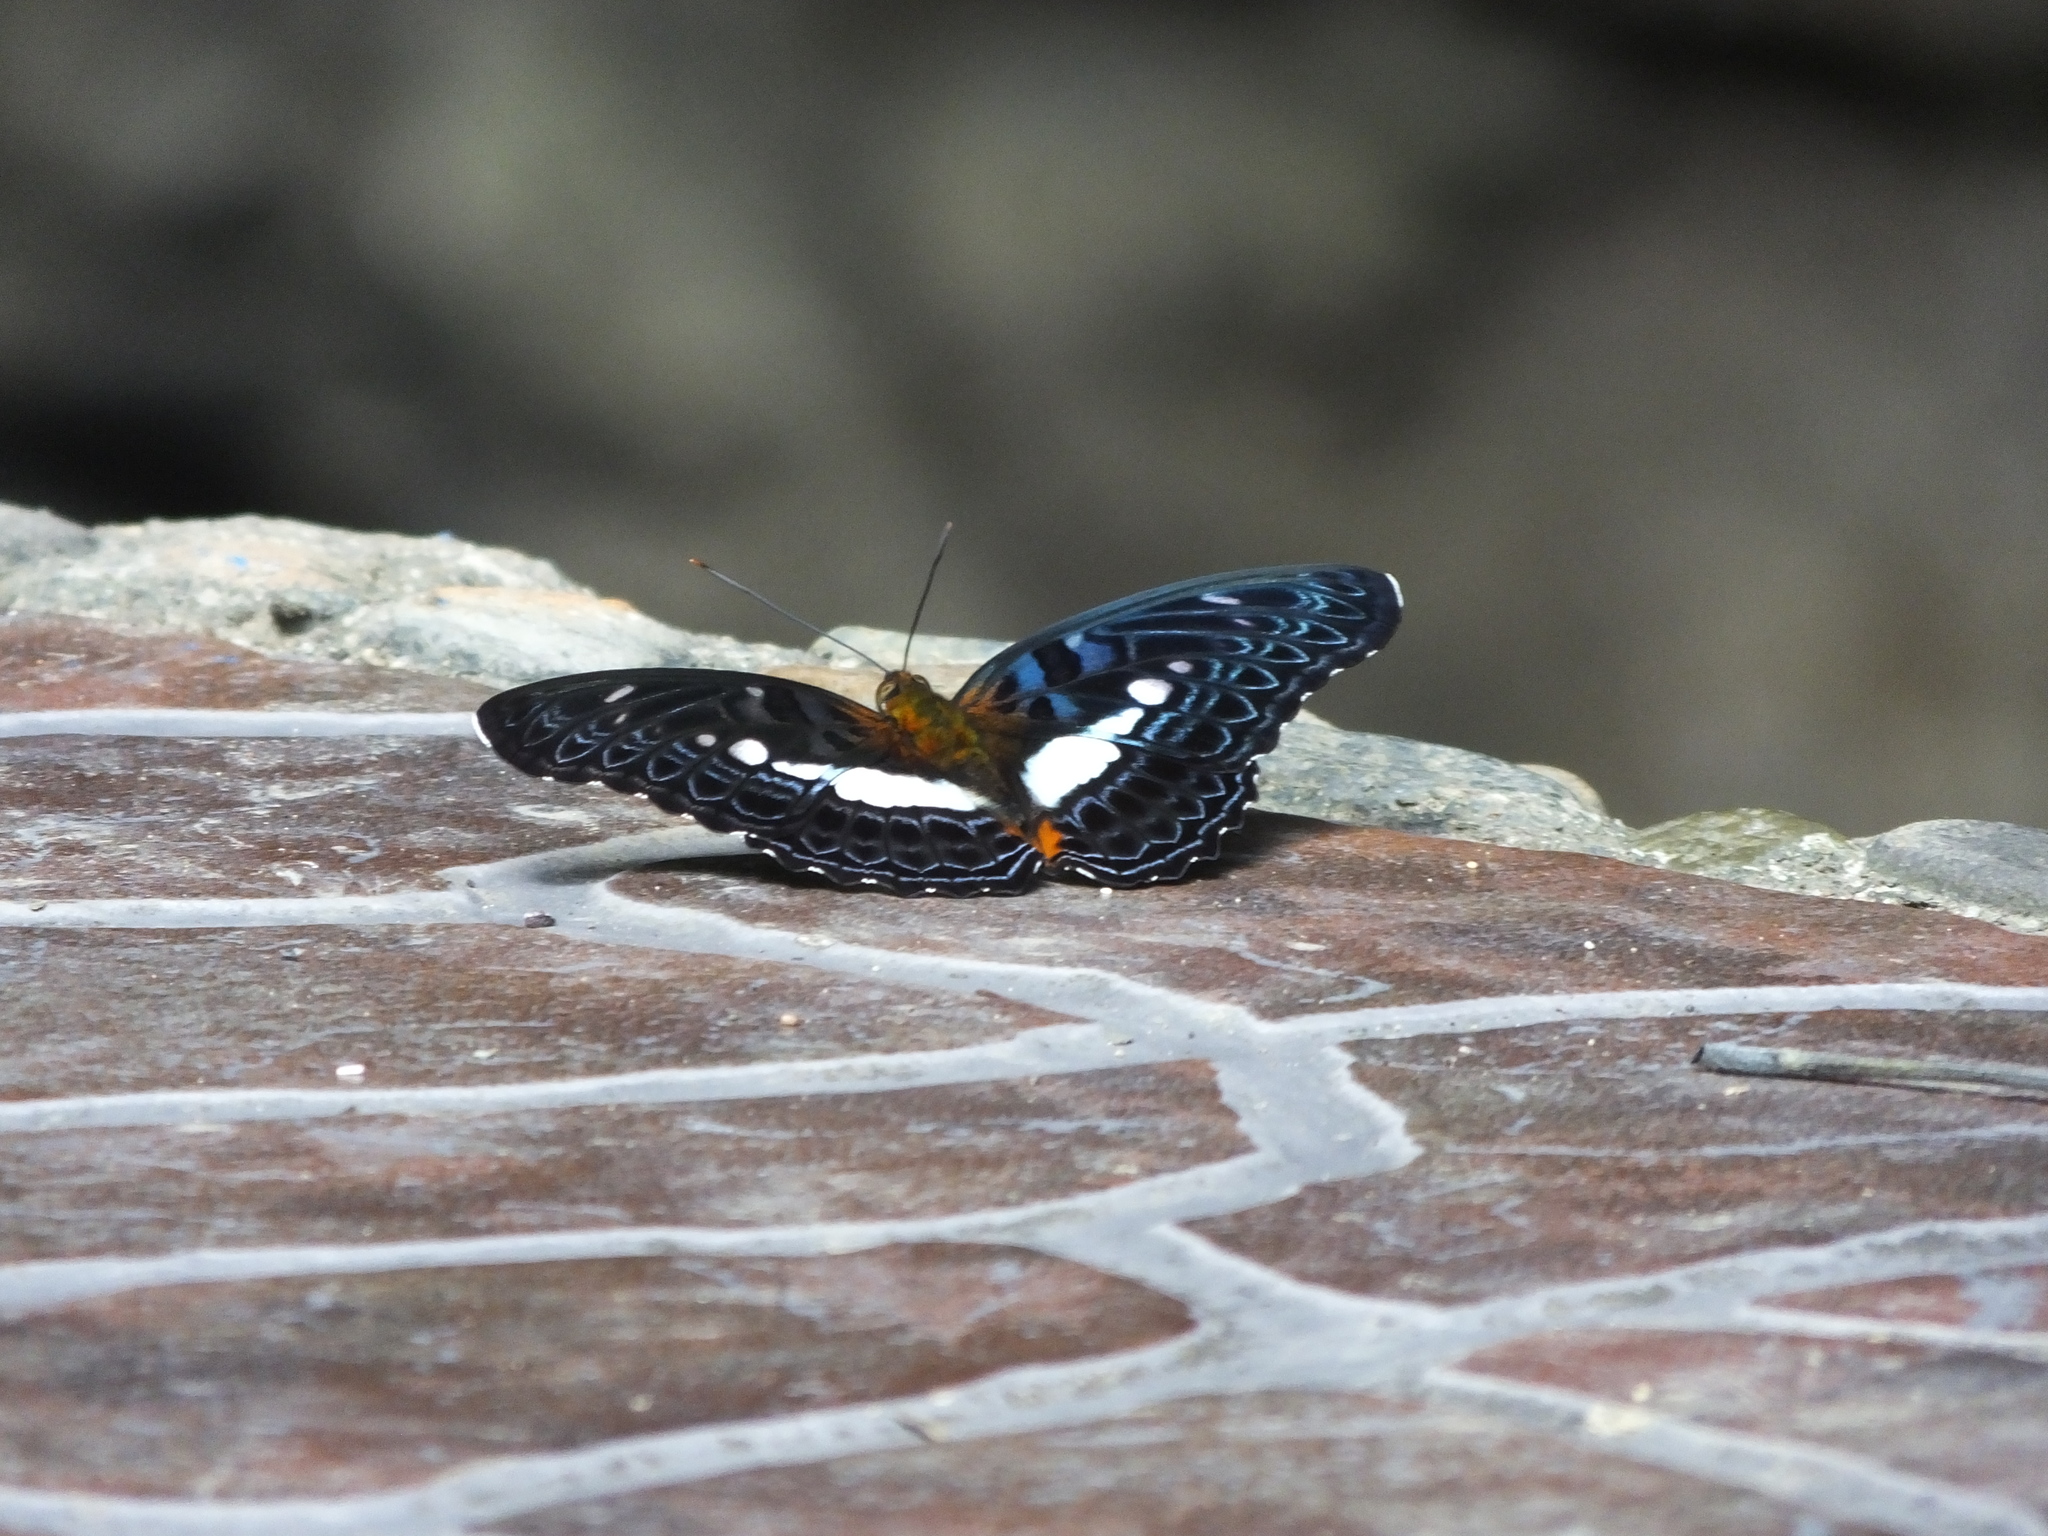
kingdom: Animalia
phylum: Arthropoda
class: Insecta
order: Lepidoptera
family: Nymphalidae
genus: Limenitis
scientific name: Limenitis
